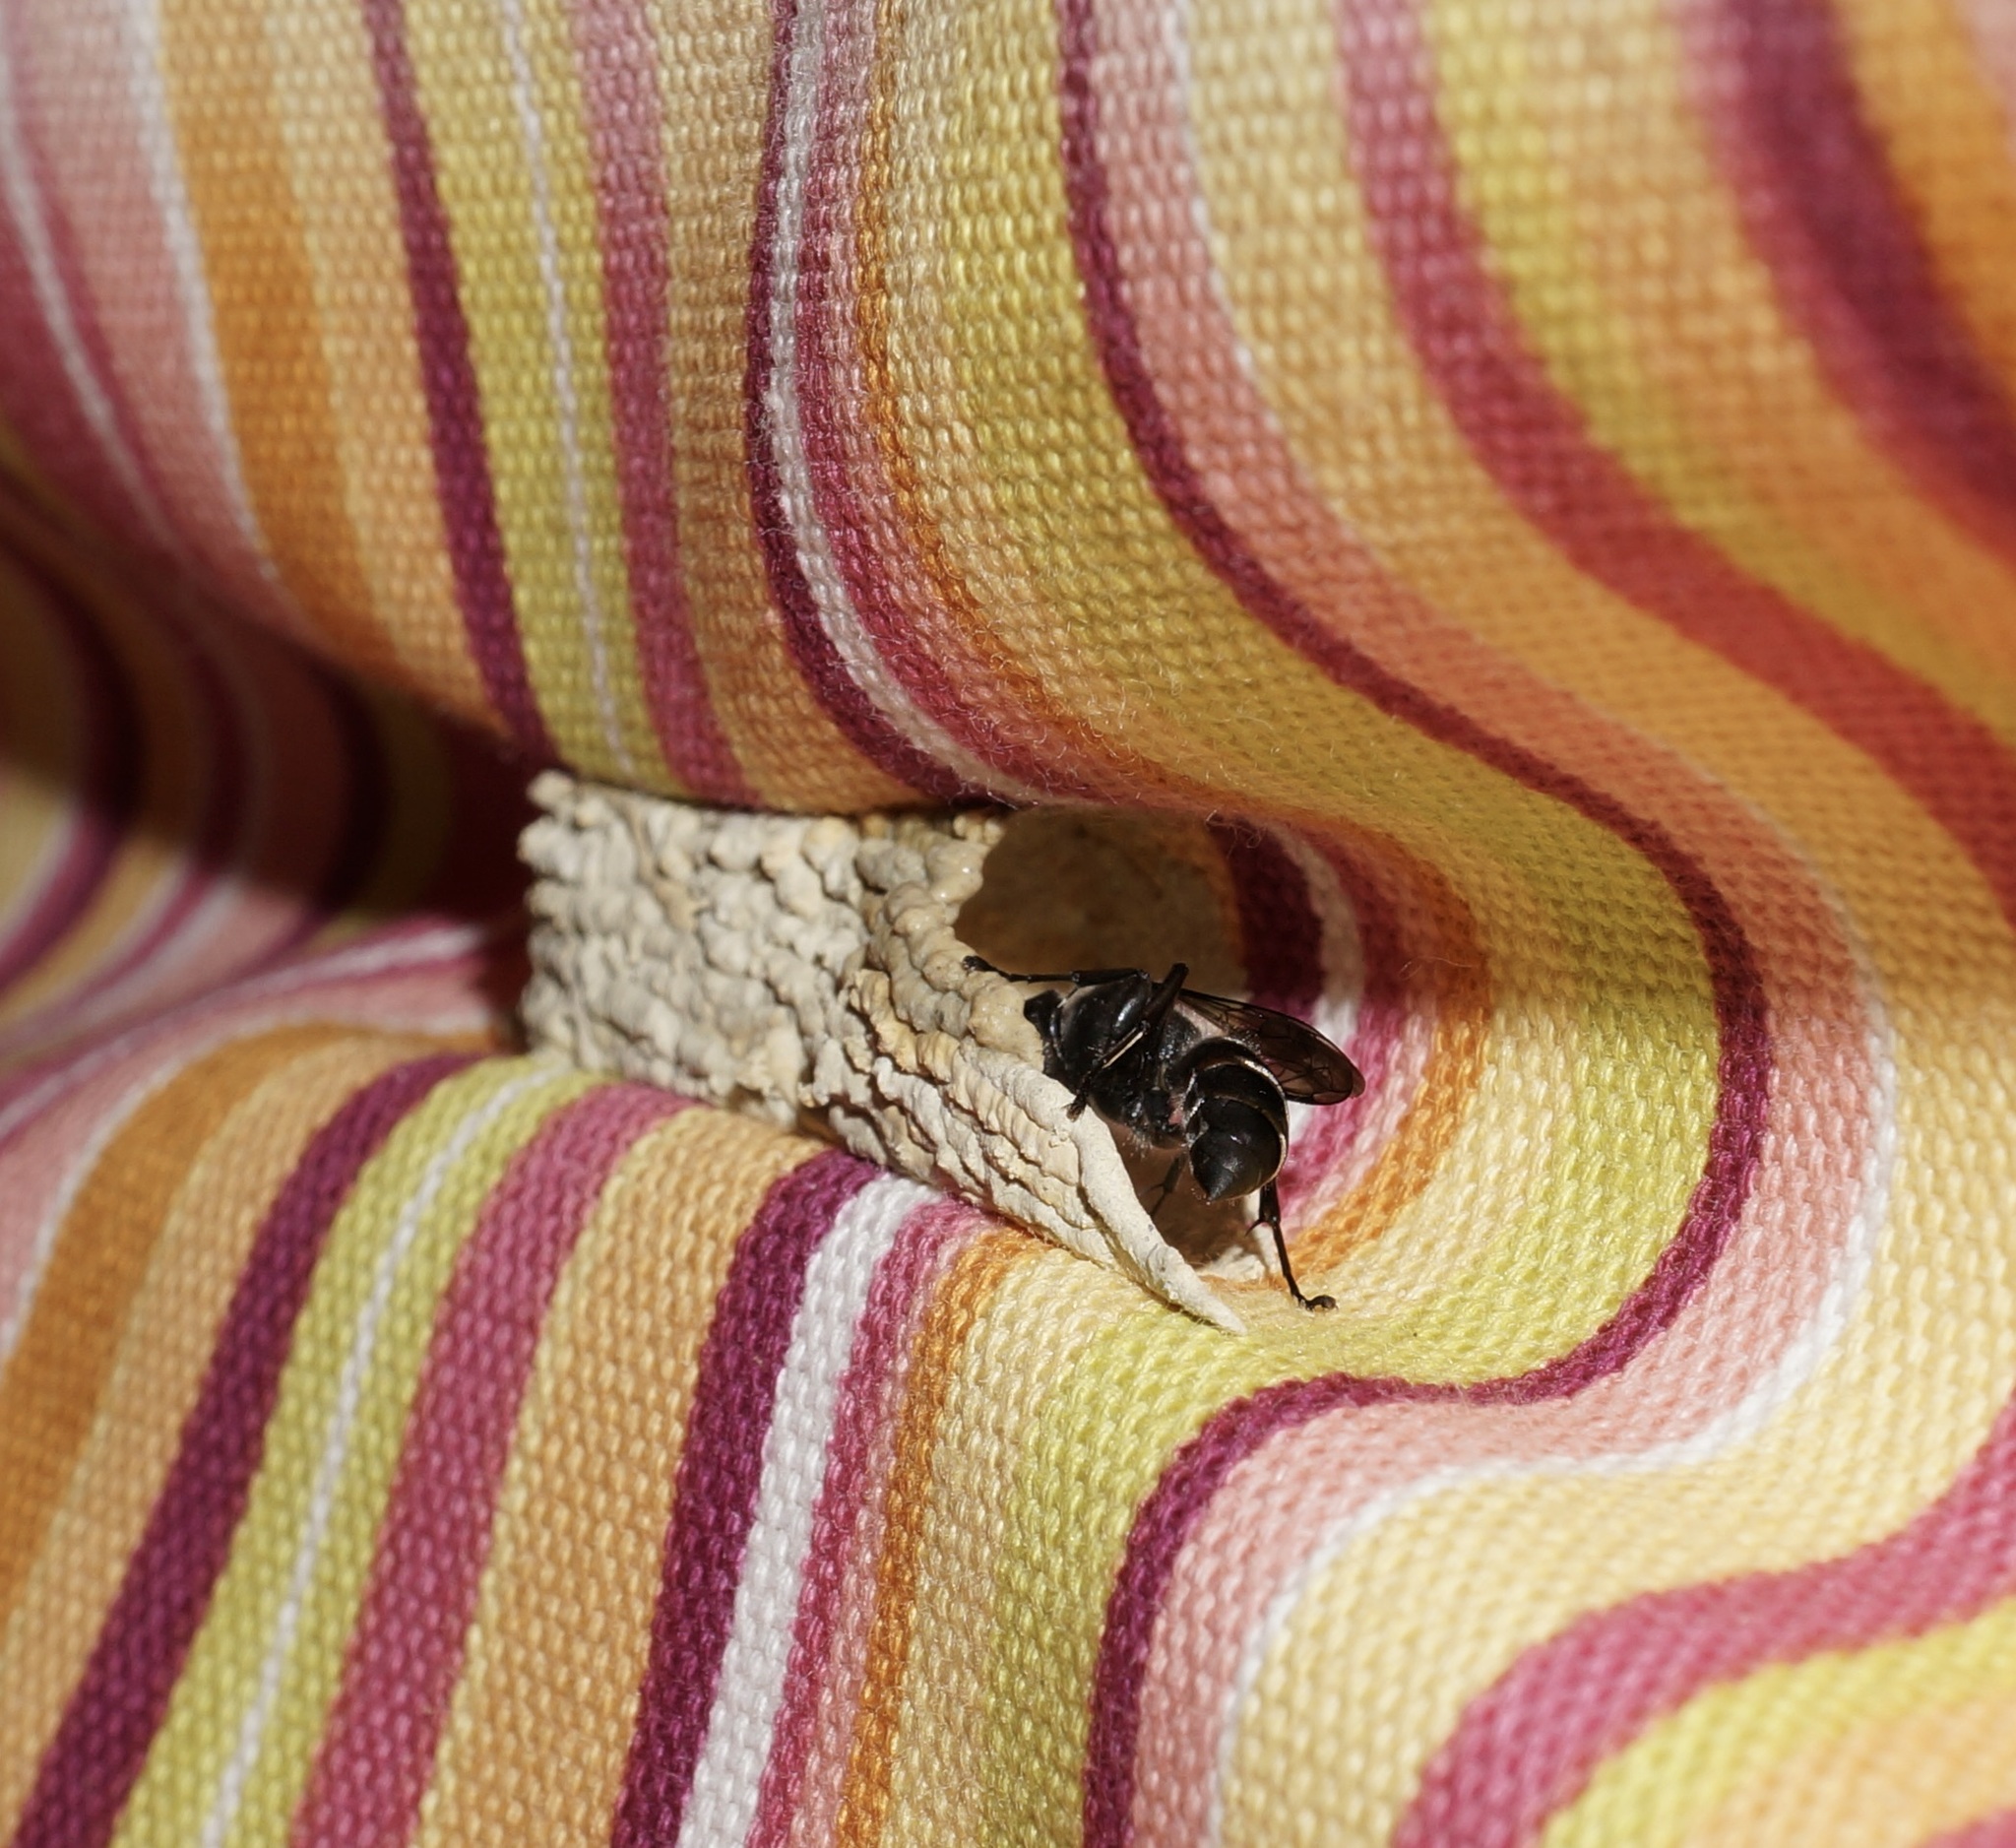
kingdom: Animalia
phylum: Arthropoda
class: Insecta
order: Hymenoptera
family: Crabronidae
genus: Pison
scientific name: Pison spinolae
